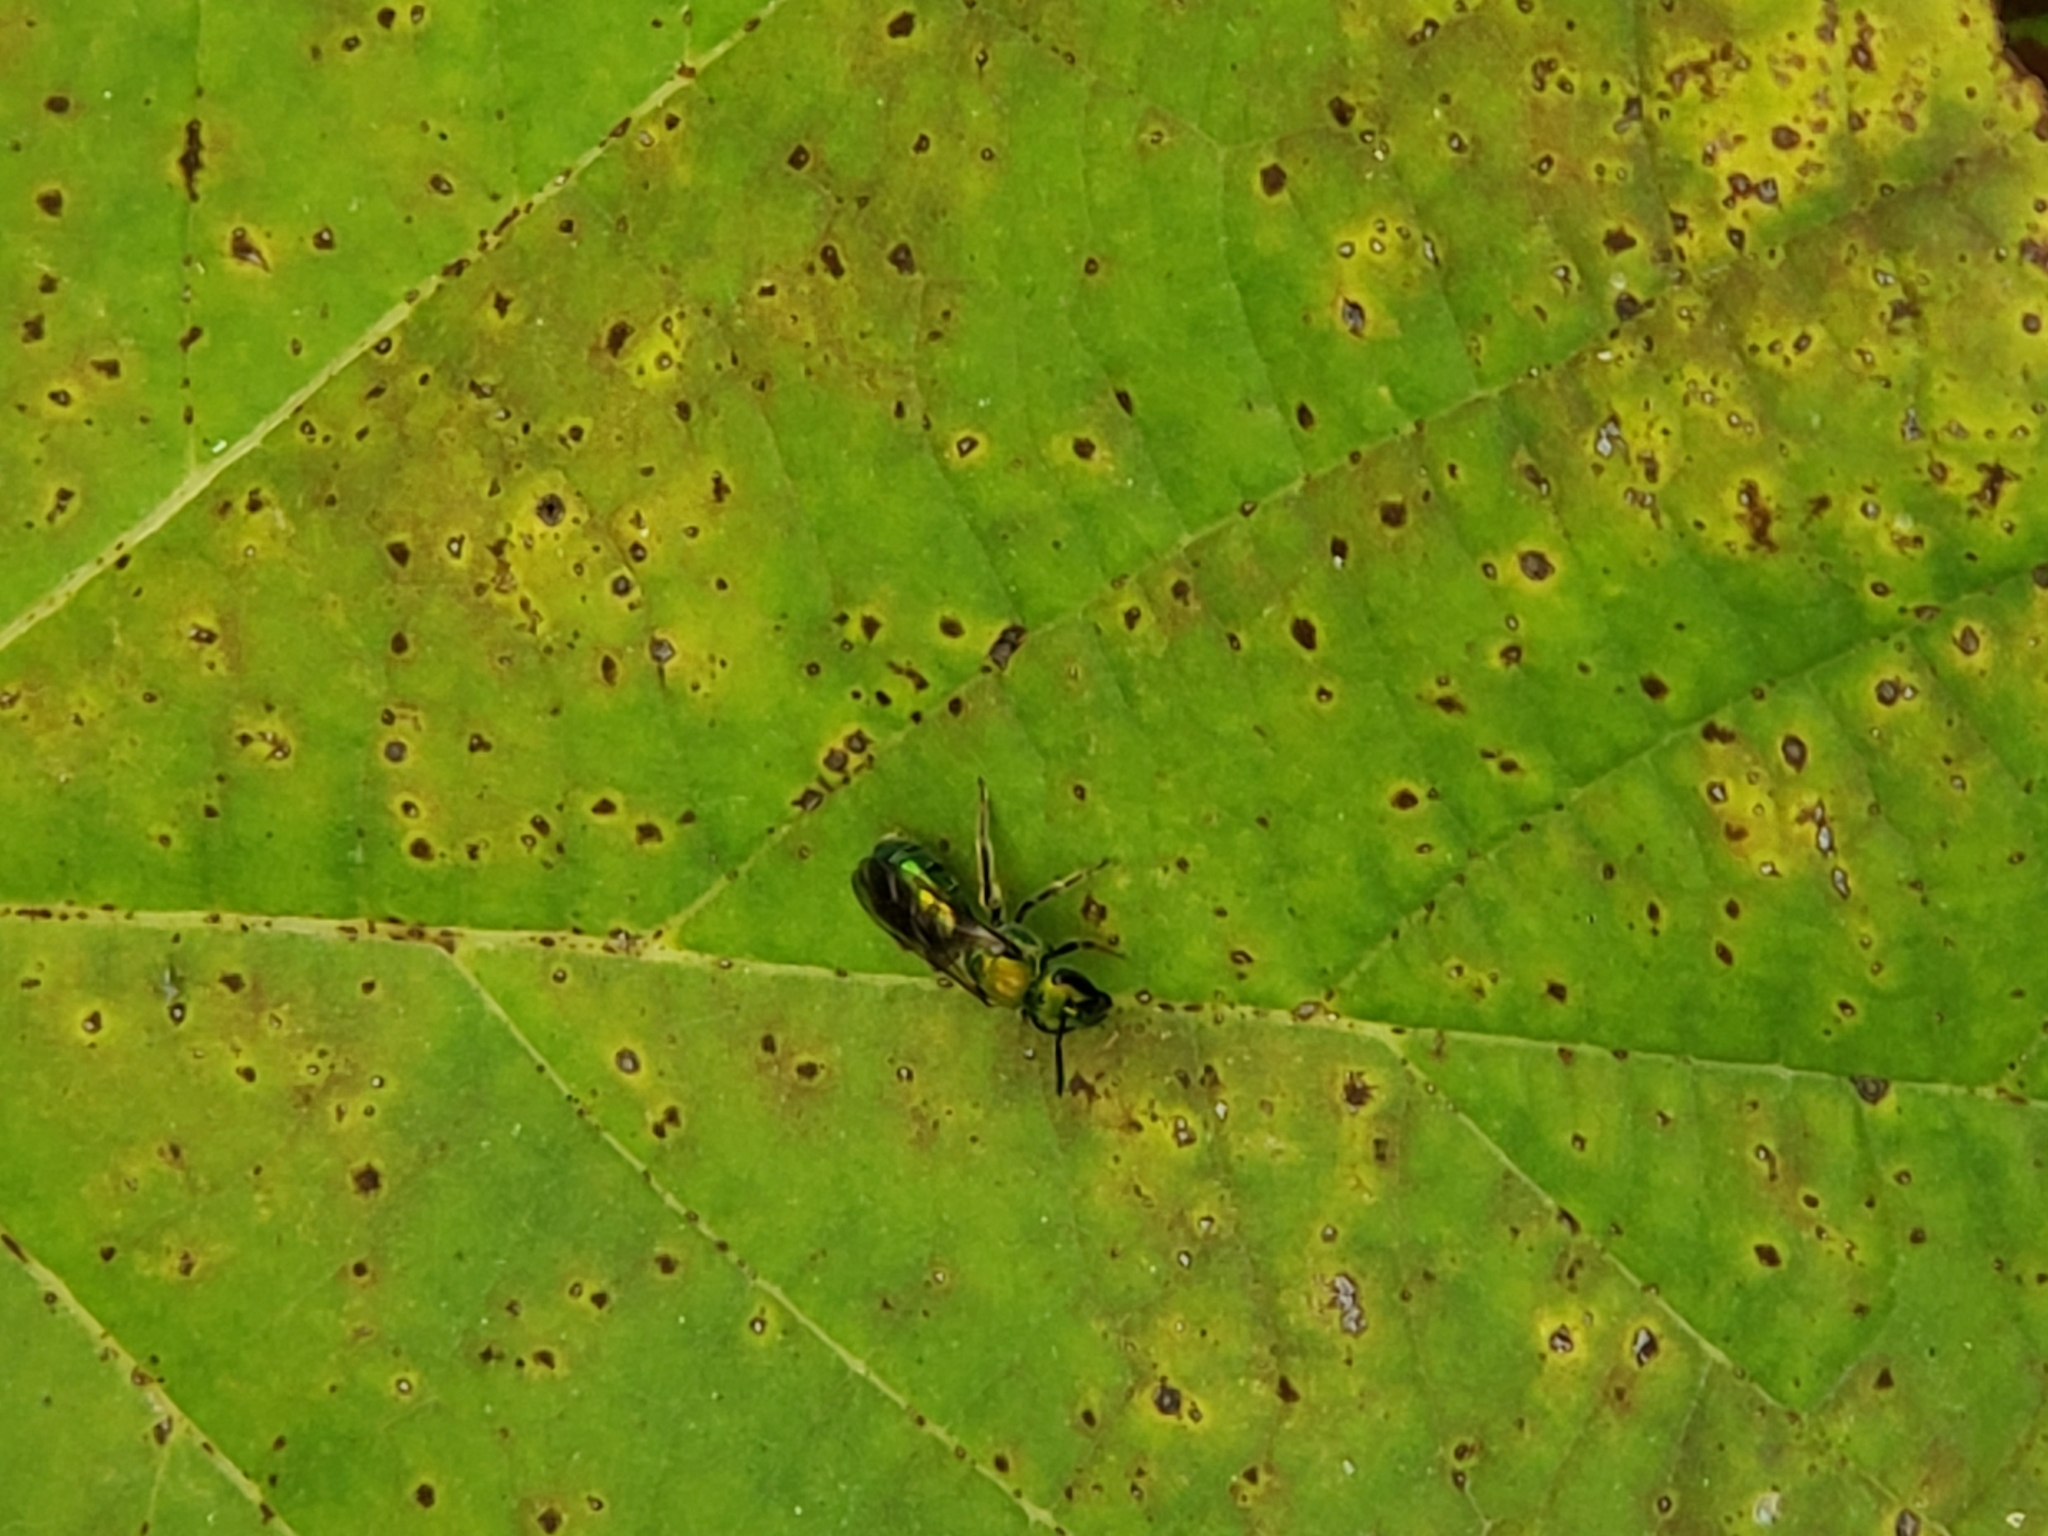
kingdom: Animalia
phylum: Arthropoda
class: Insecta
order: Hymenoptera
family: Halictidae
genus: Augochlora
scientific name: Augochlora pura
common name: Pure green sweat bee
